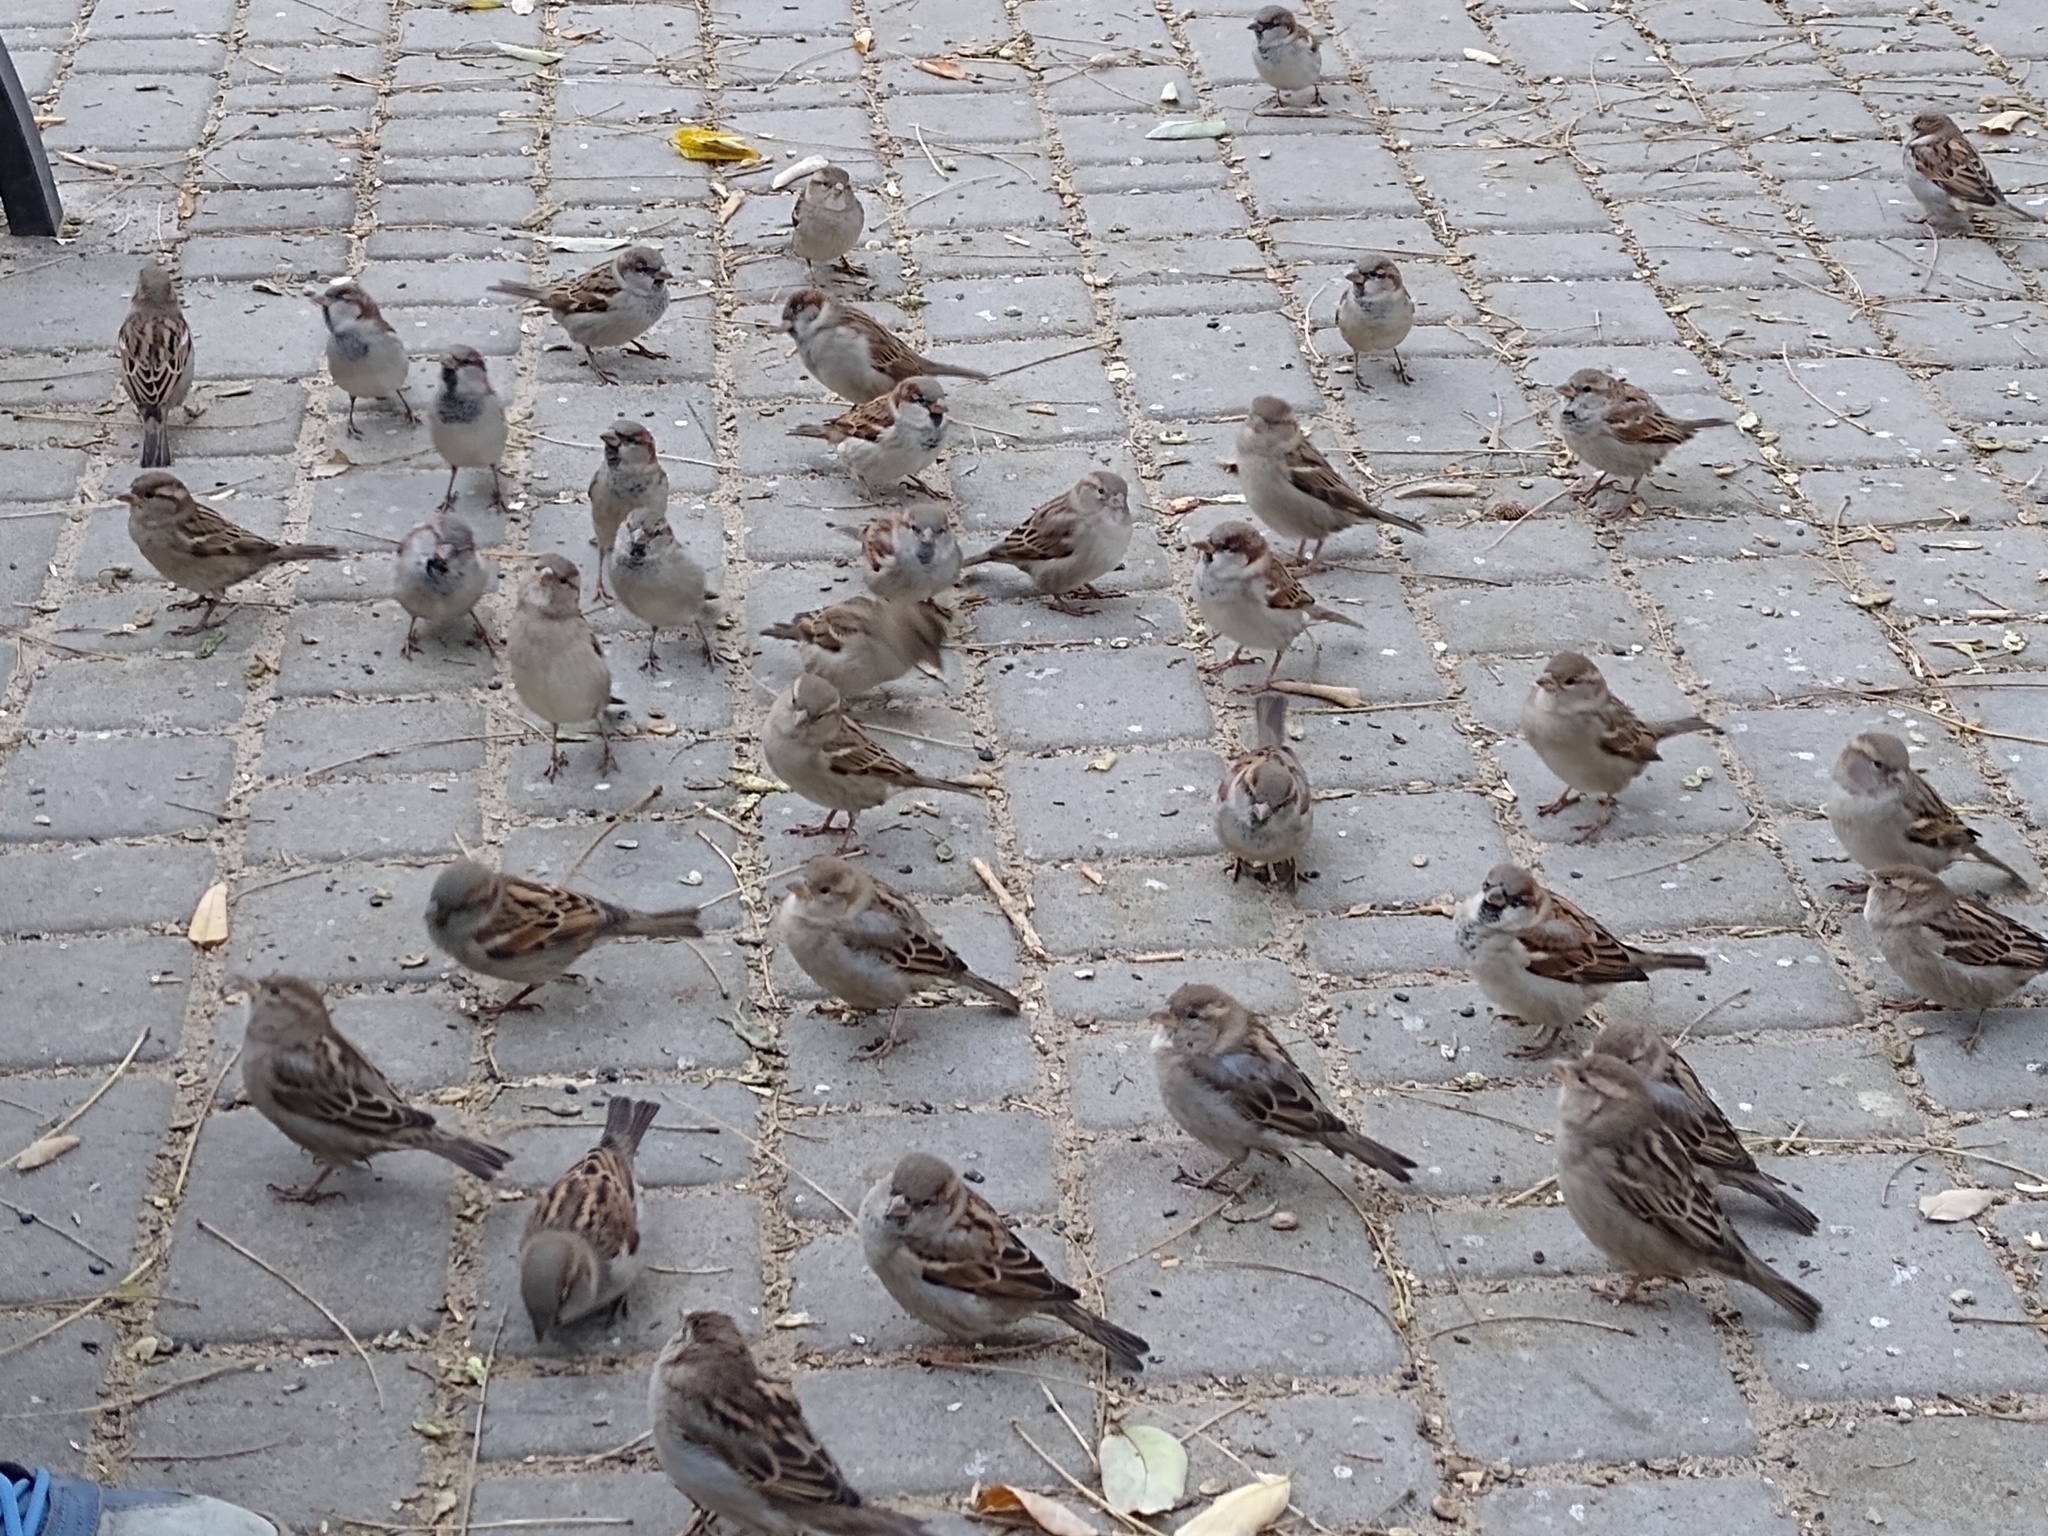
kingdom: Animalia
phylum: Chordata
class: Aves
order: Passeriformes
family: Passeridae
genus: Passer
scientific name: Passer domesticus
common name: House sparrow
